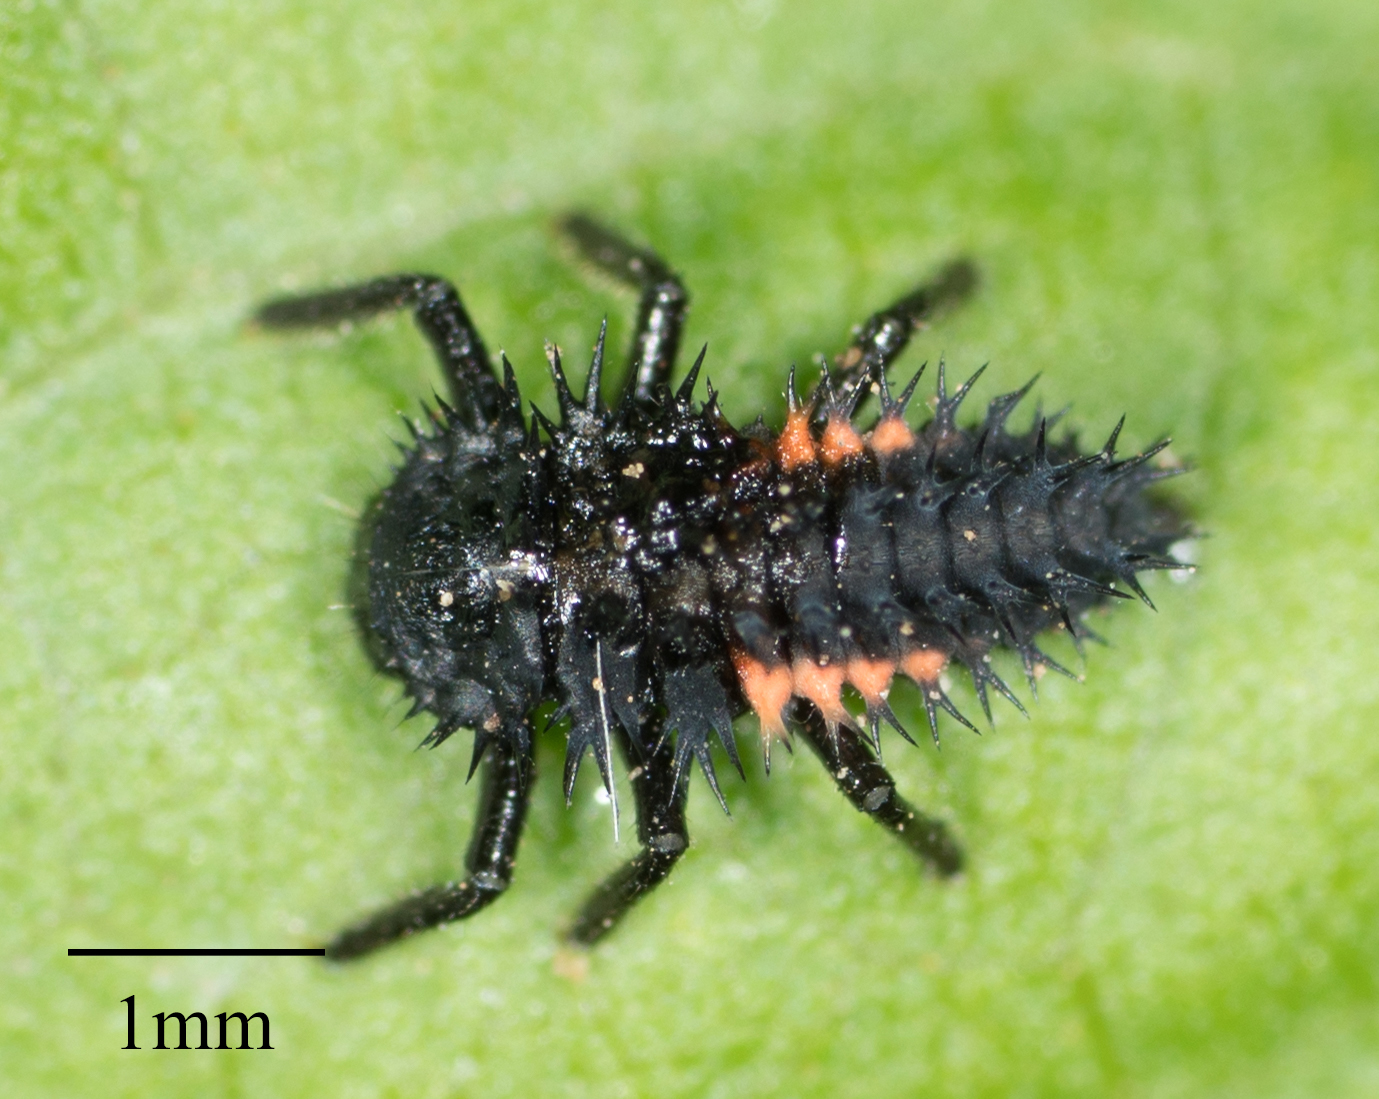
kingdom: Animalia
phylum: Arthropoda
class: Insecta
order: Coleoptera
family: Coccinellidae
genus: Harmonia
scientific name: Harmonia axyridis
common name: Harlequin ladybird
